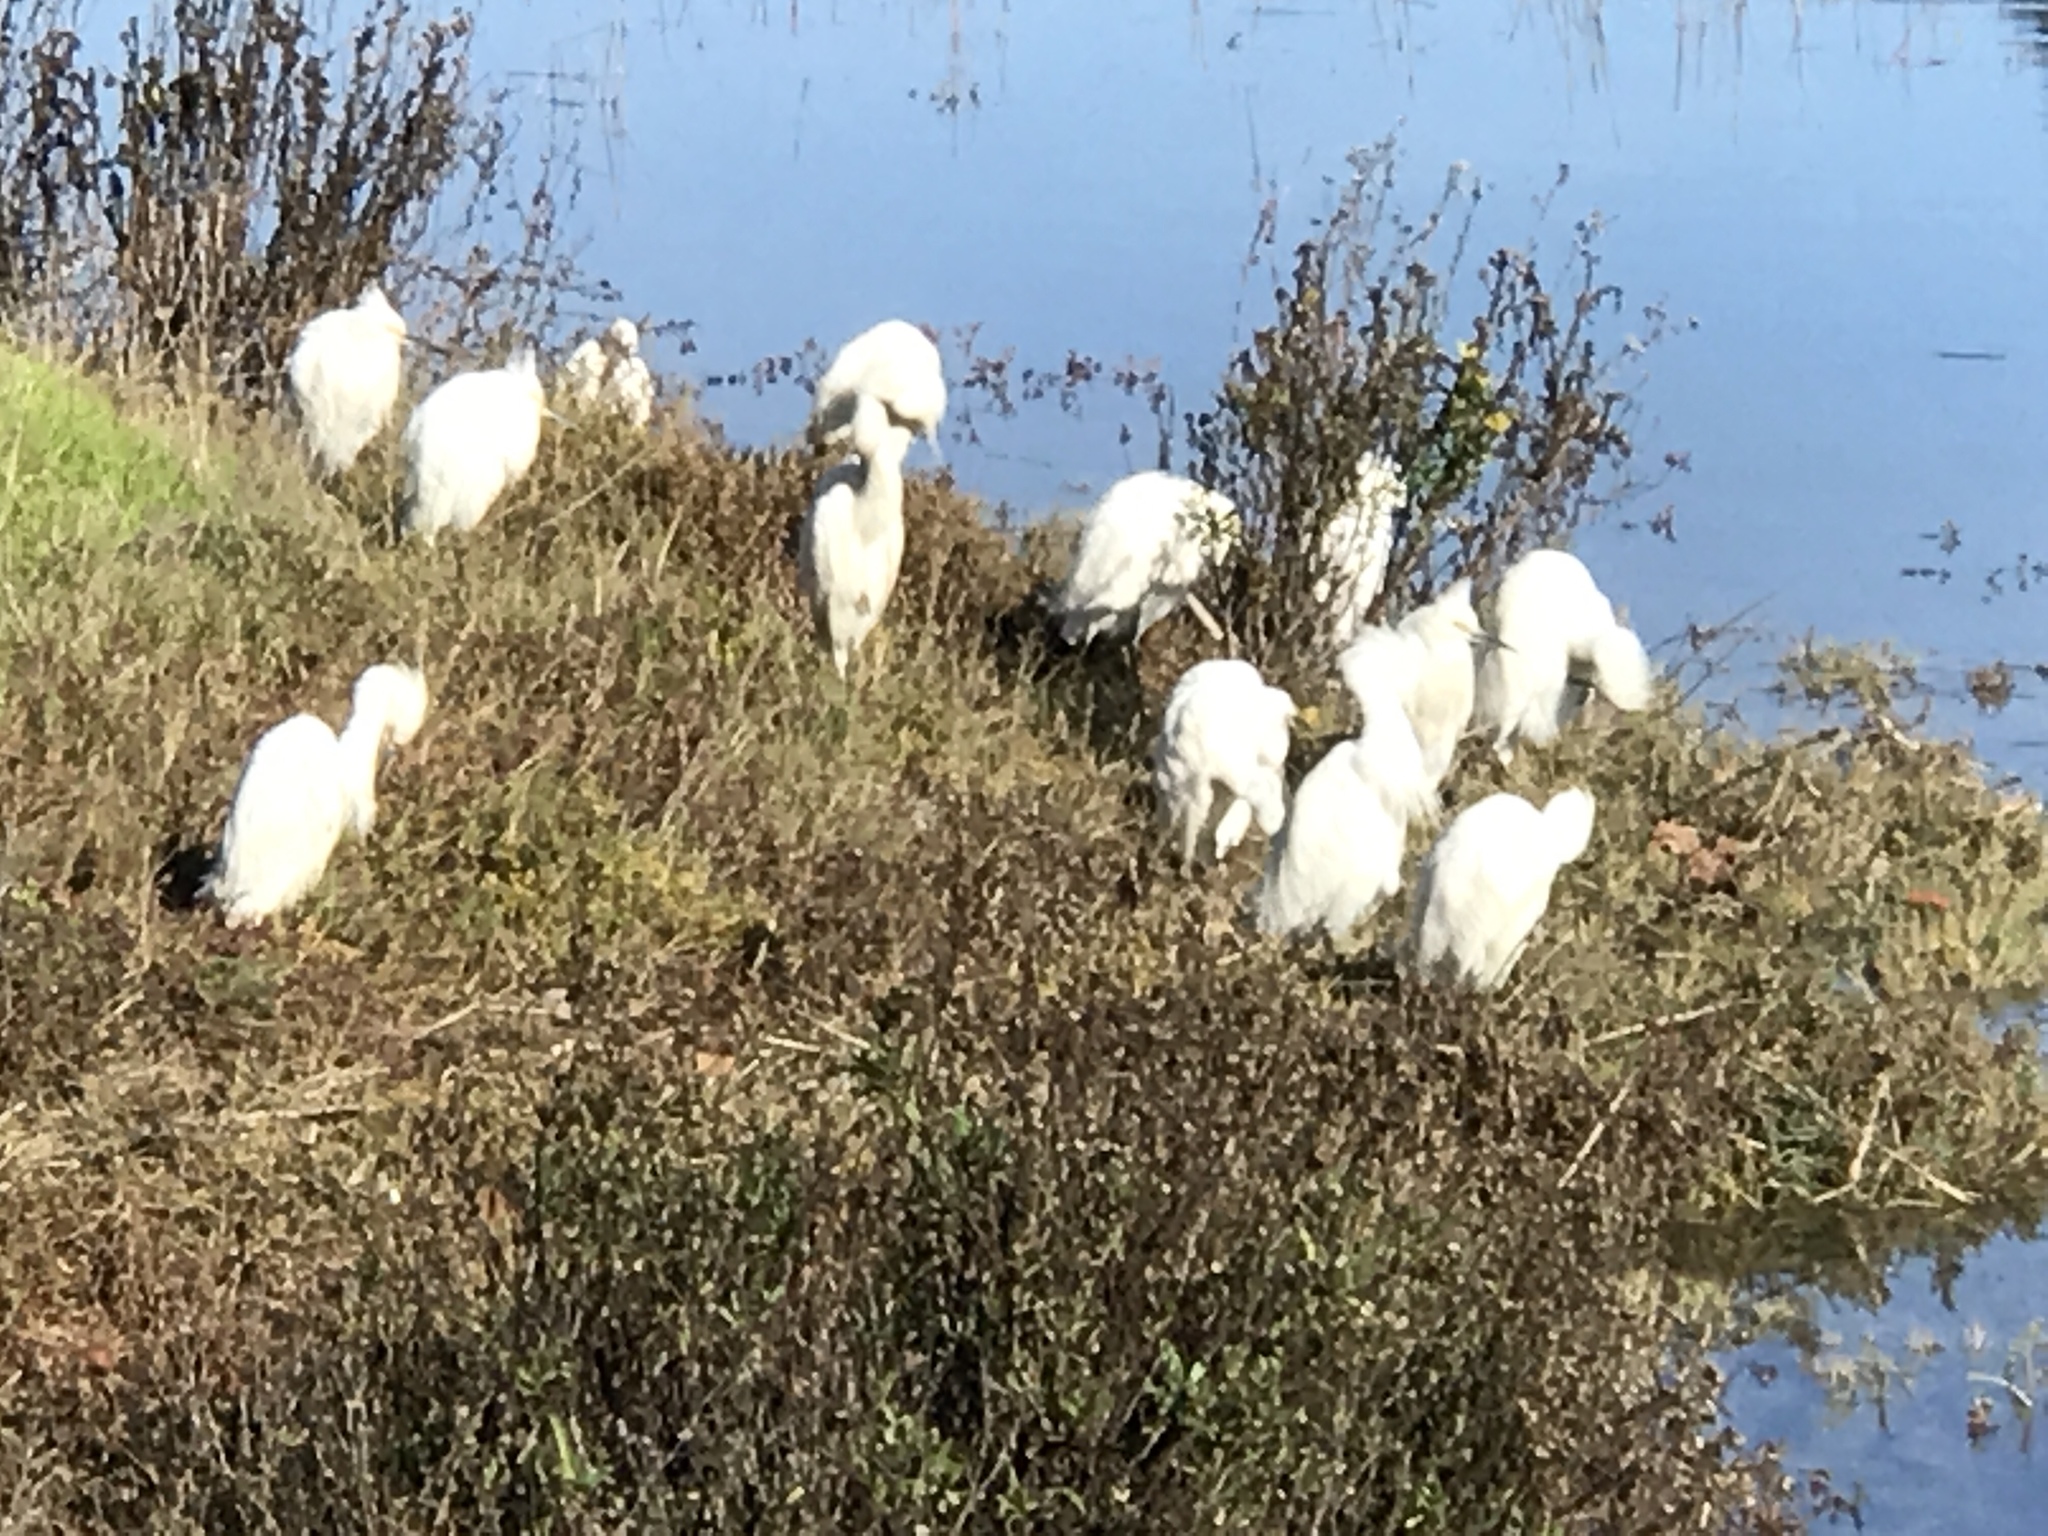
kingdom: Animalia
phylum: Chordata
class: Aves
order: Pelecaniformes
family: Ardeidae
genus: Egretta
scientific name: Egretta thula
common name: Snowy egret
